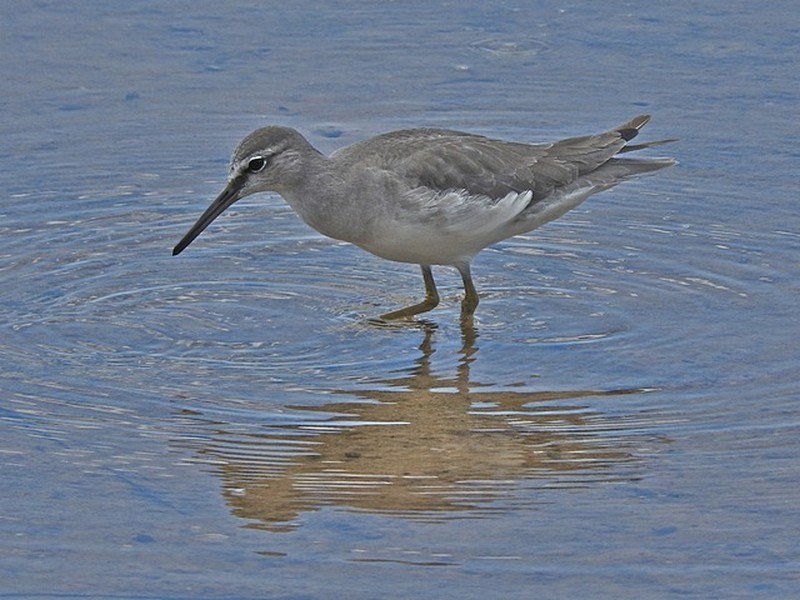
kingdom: Animalia
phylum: Chordata
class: Aves
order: Charadriiformes
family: Scolopacidae
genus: Tringa
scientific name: Tringa brevipes
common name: Grey-tailed tattler
